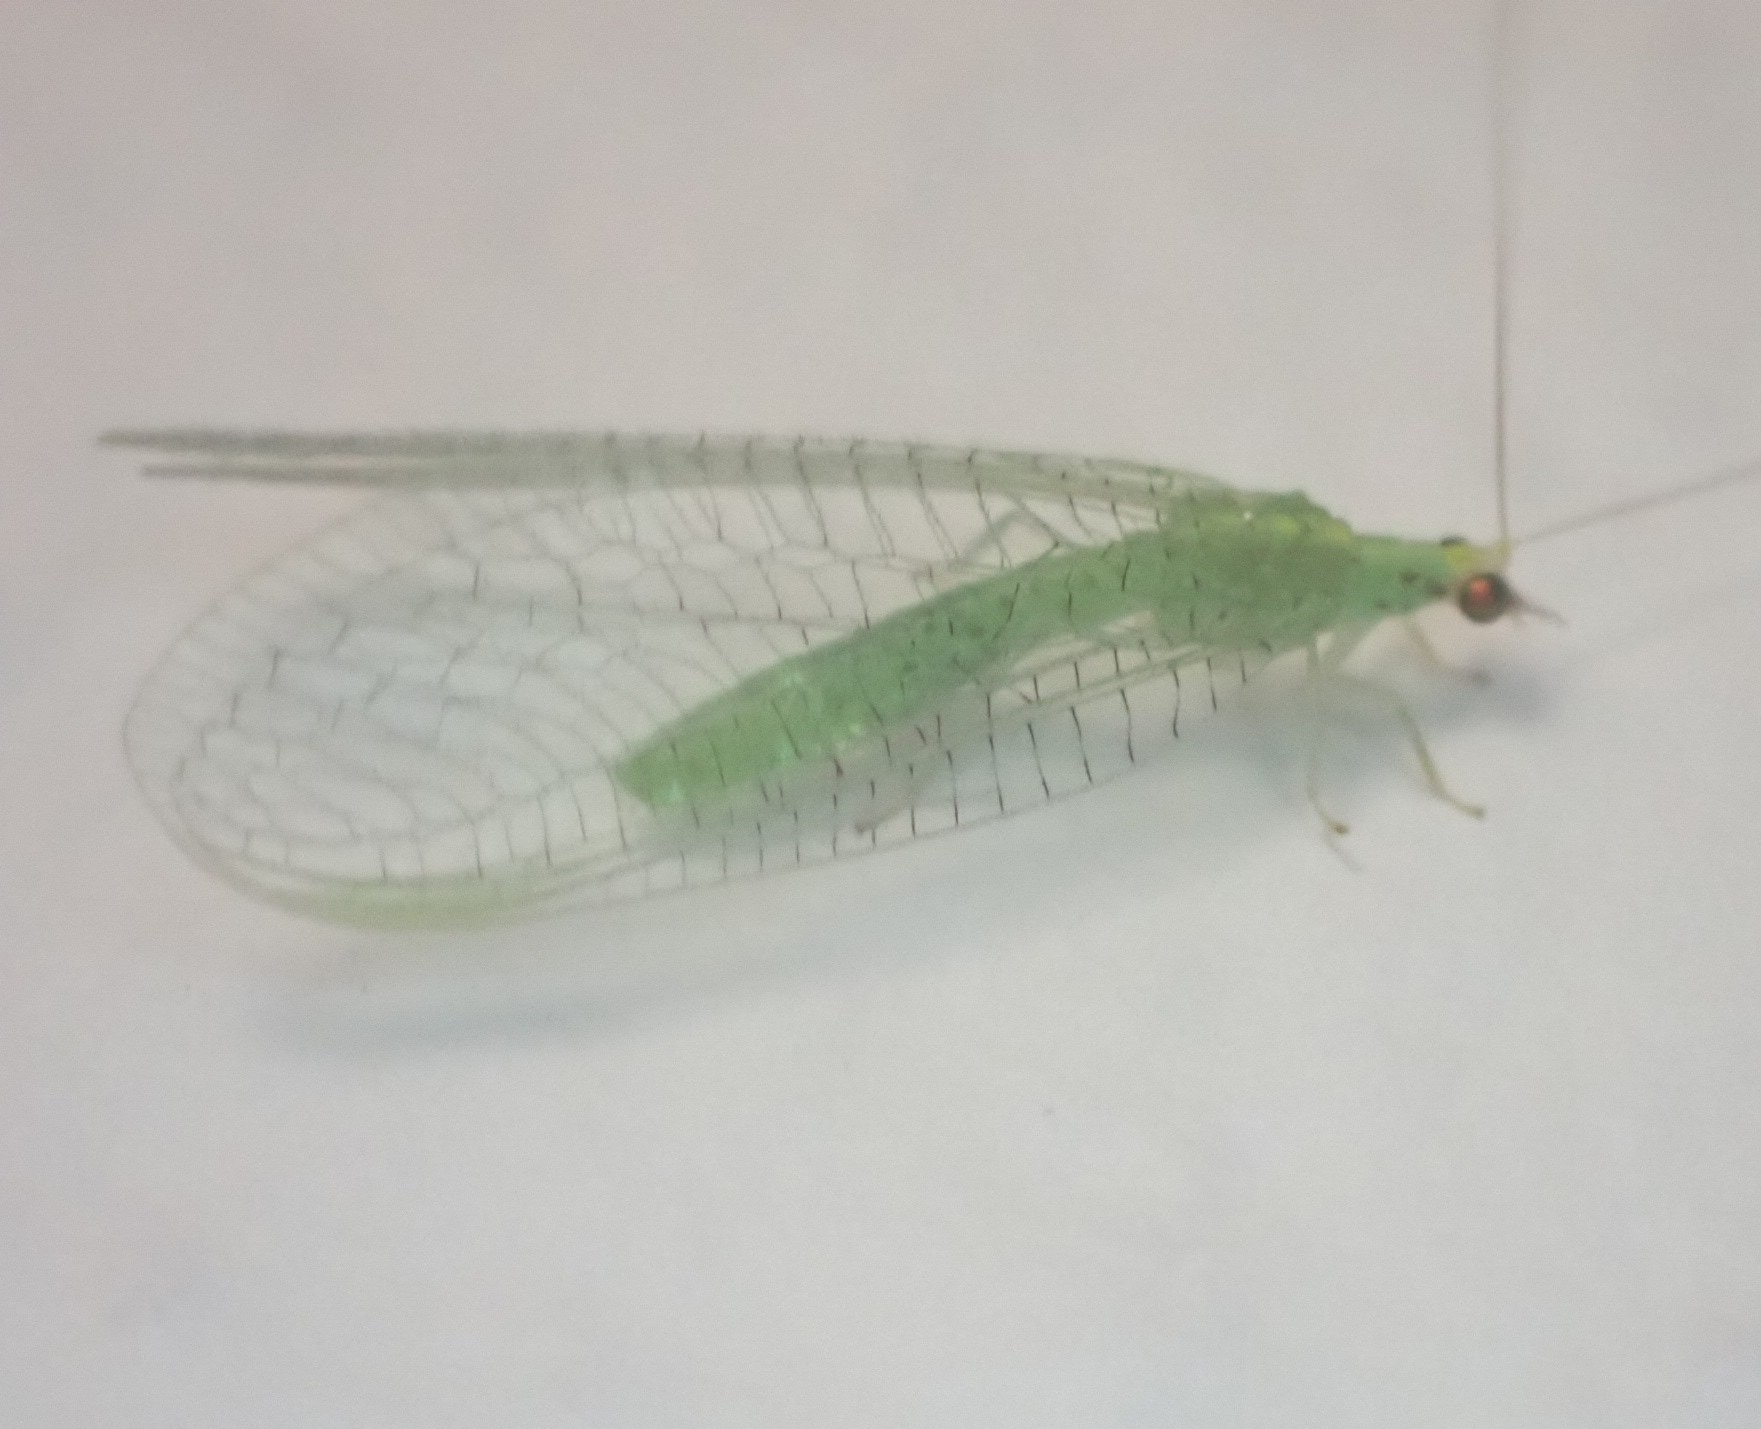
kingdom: Animalia
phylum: Arthropoda
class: Insecta
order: Neuroptera
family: Chrysopidae
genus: Pseudomallada
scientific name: Pseudomallada flavifrons
